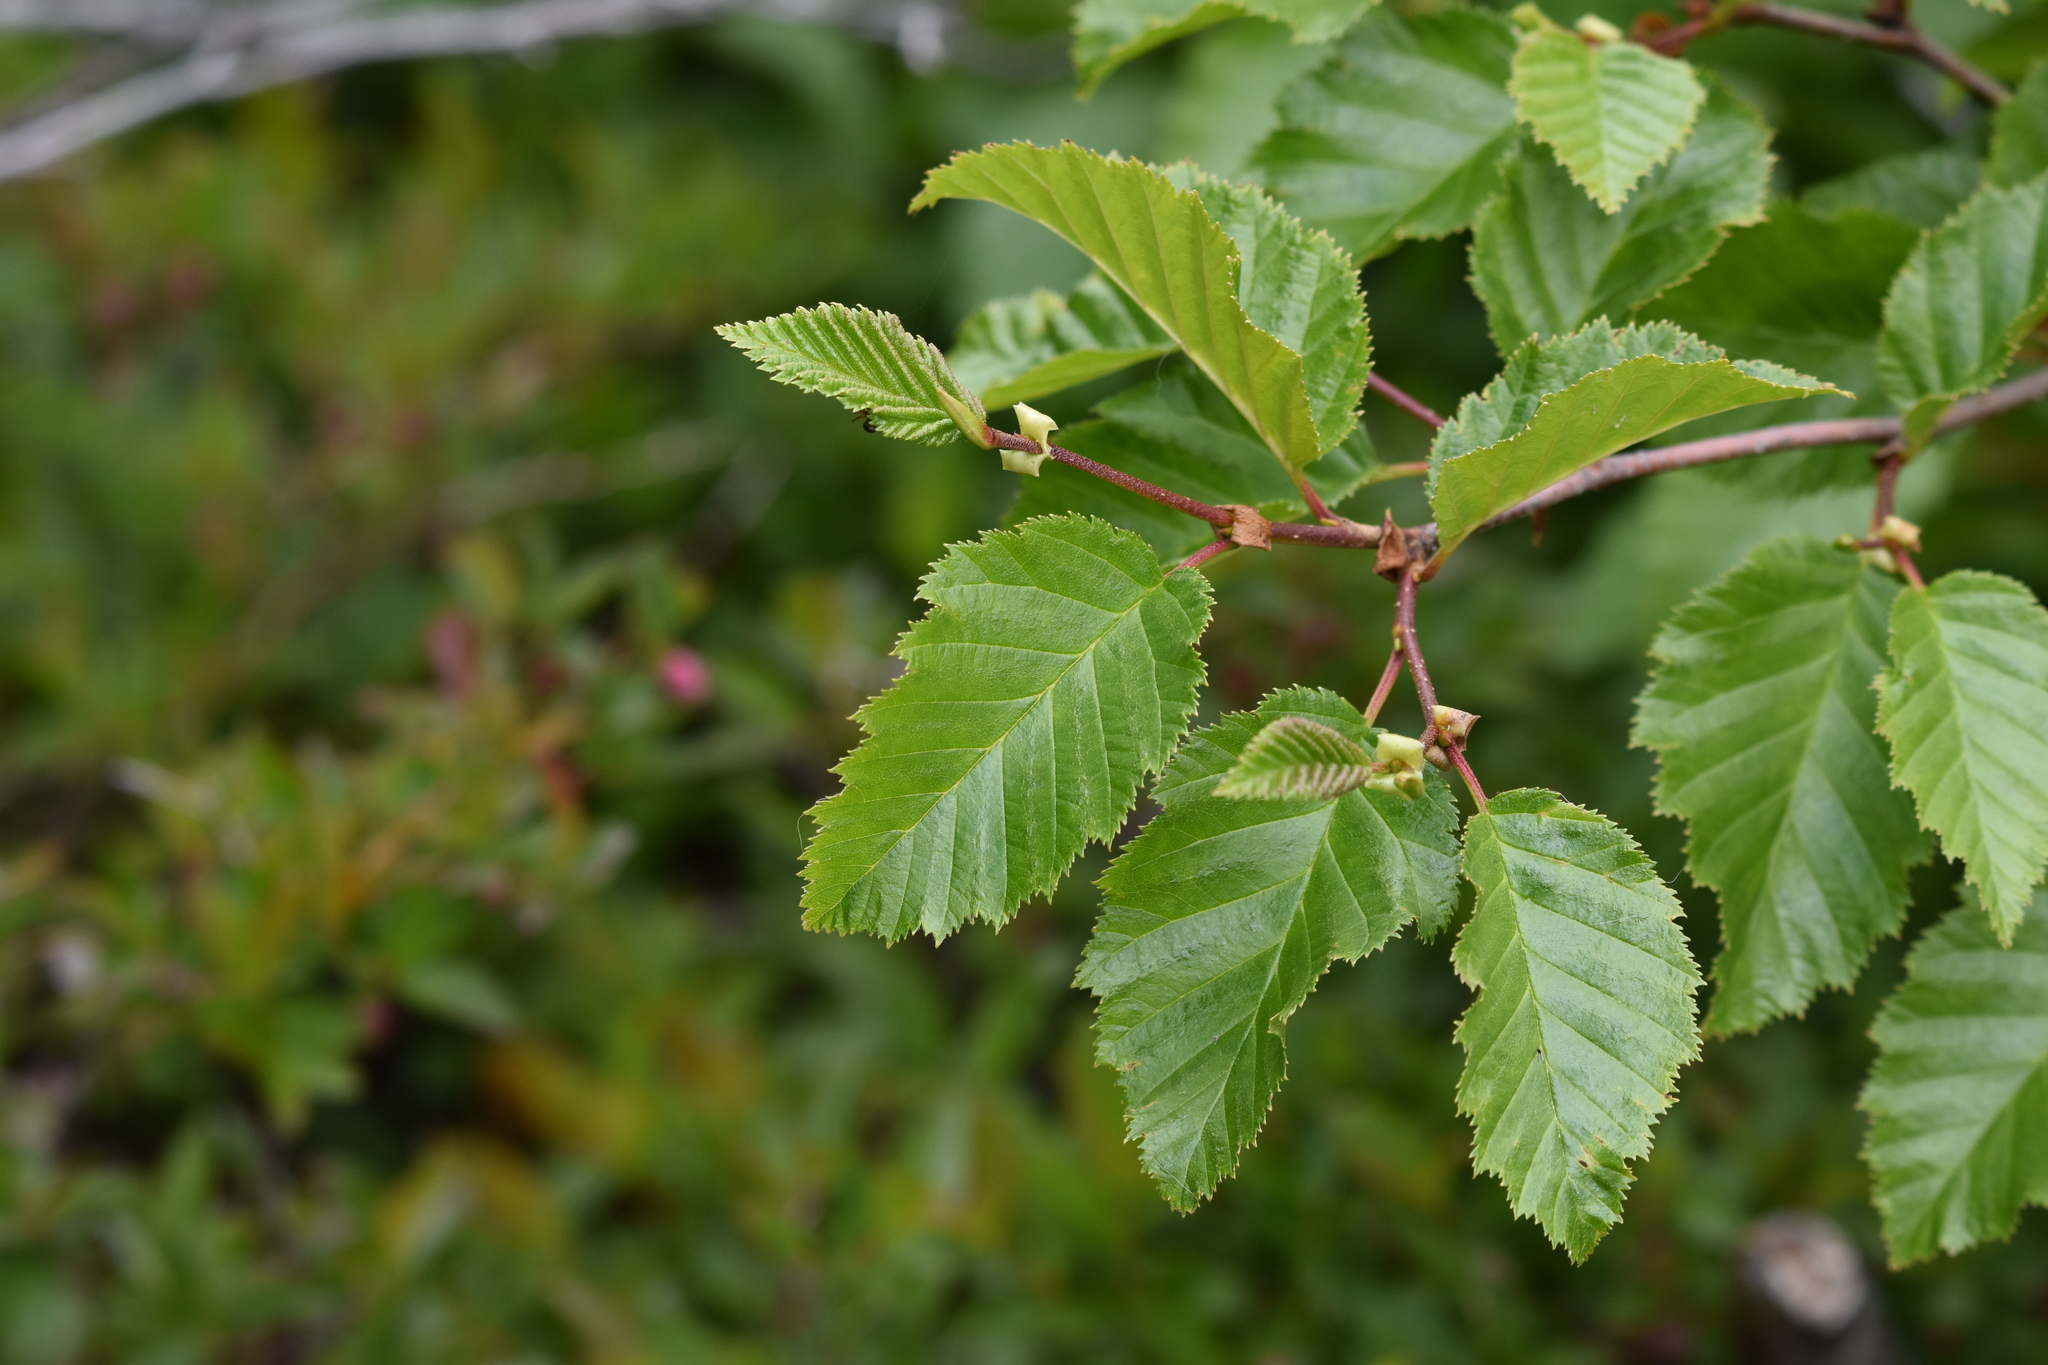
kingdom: Plantae
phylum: Tracheophyta
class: Magnoliopsida
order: Fagales
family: Betulaceae
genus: Alnus
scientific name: Alnus alnobetula
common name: Green alder
